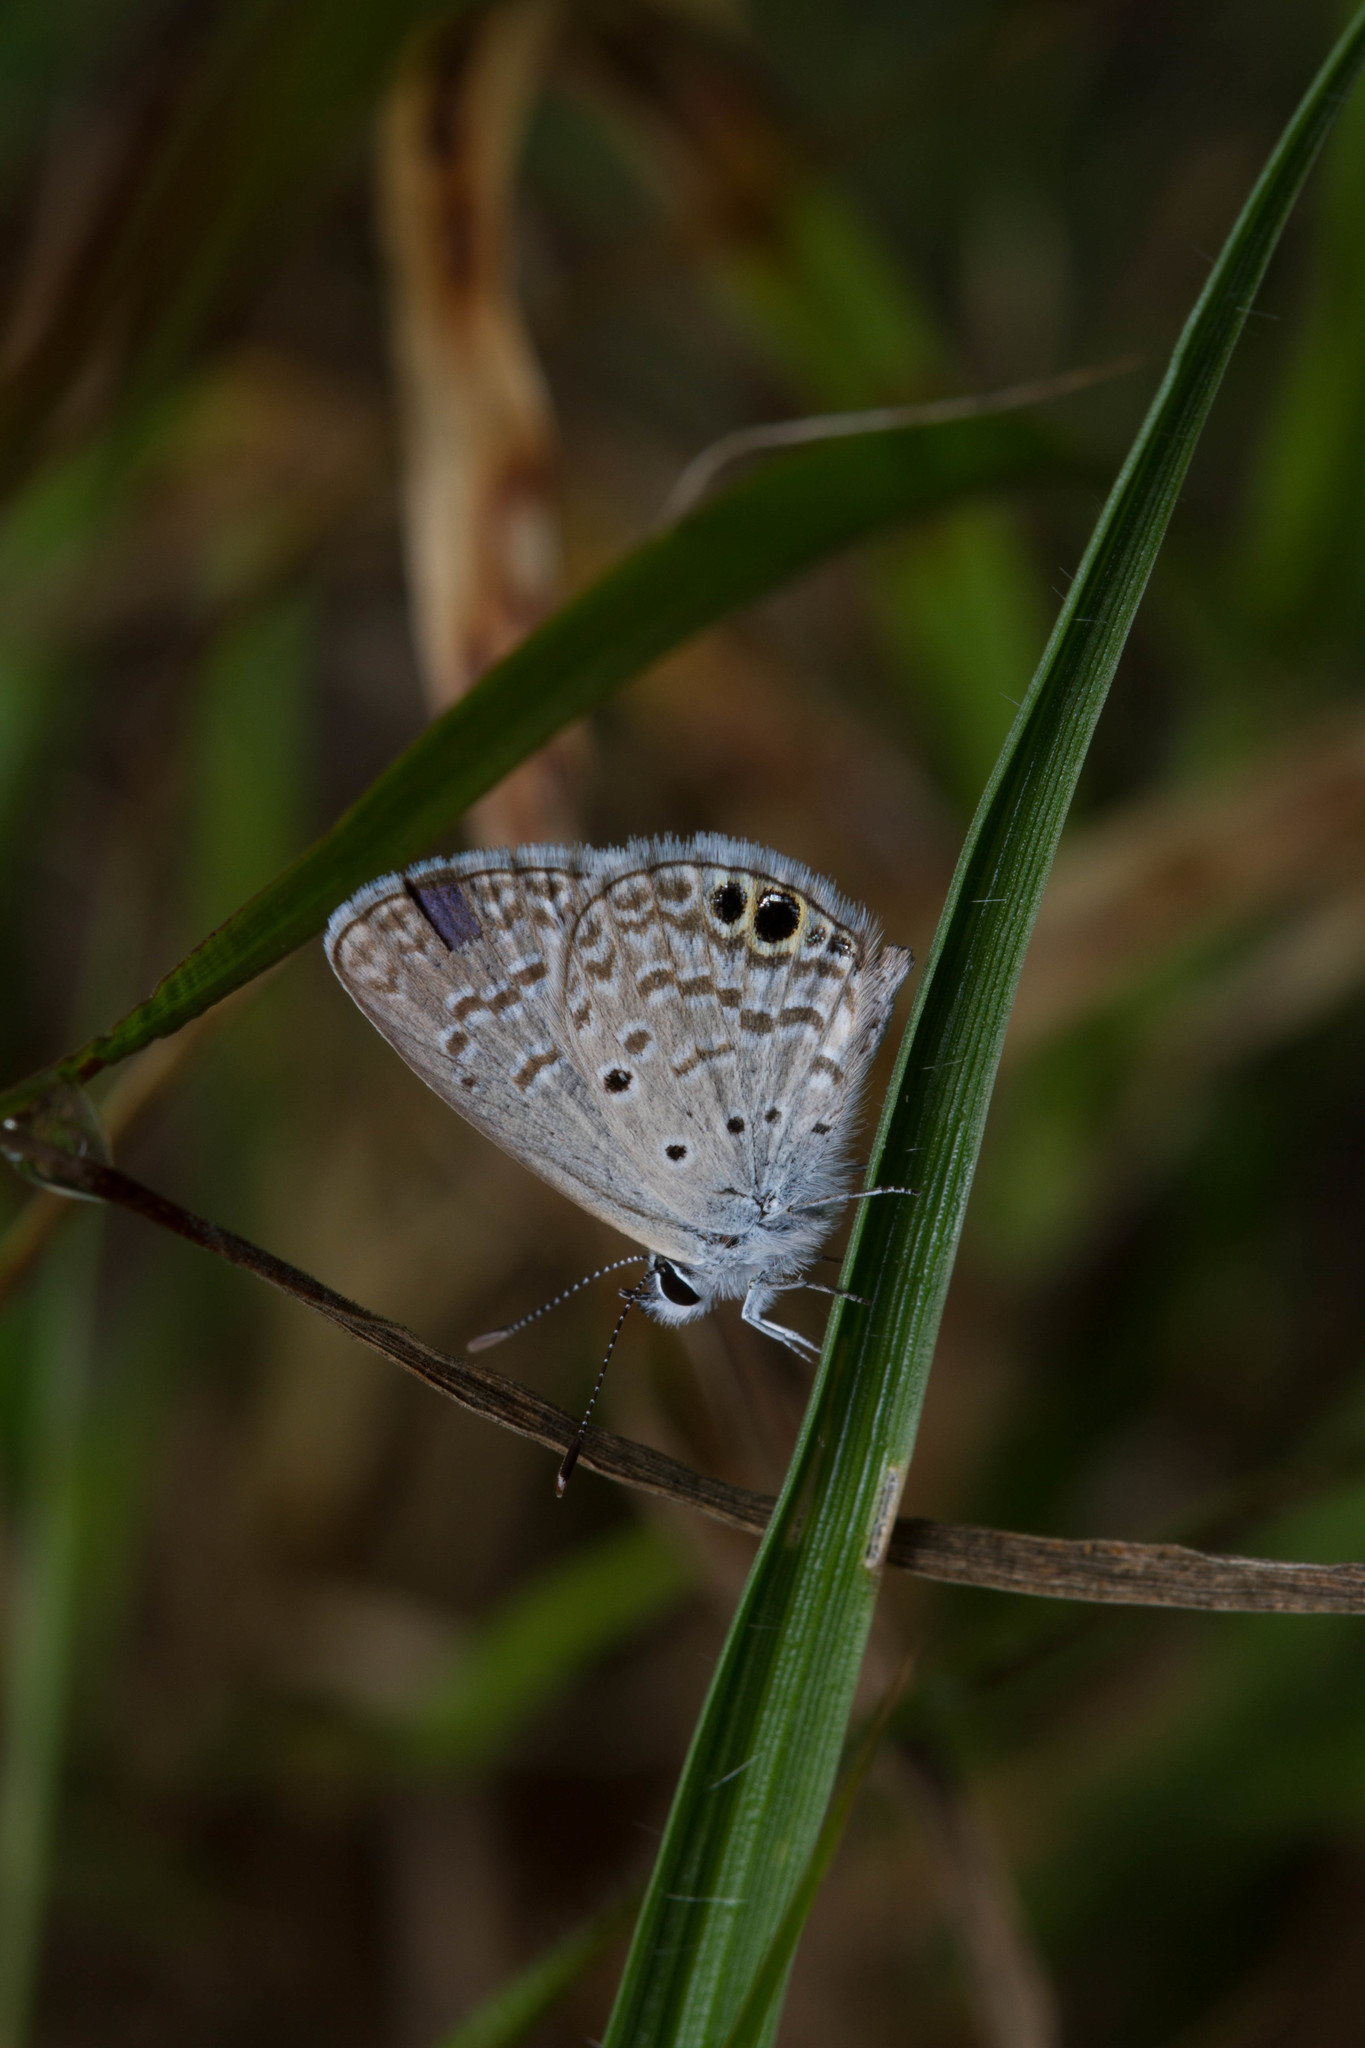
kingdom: Animalia
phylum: Arthropoda
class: Insecta
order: Lepidoptera
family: Lycaenidae
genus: Hemiargus
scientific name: Hemiargus ceraunus
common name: Ceraunus blue
